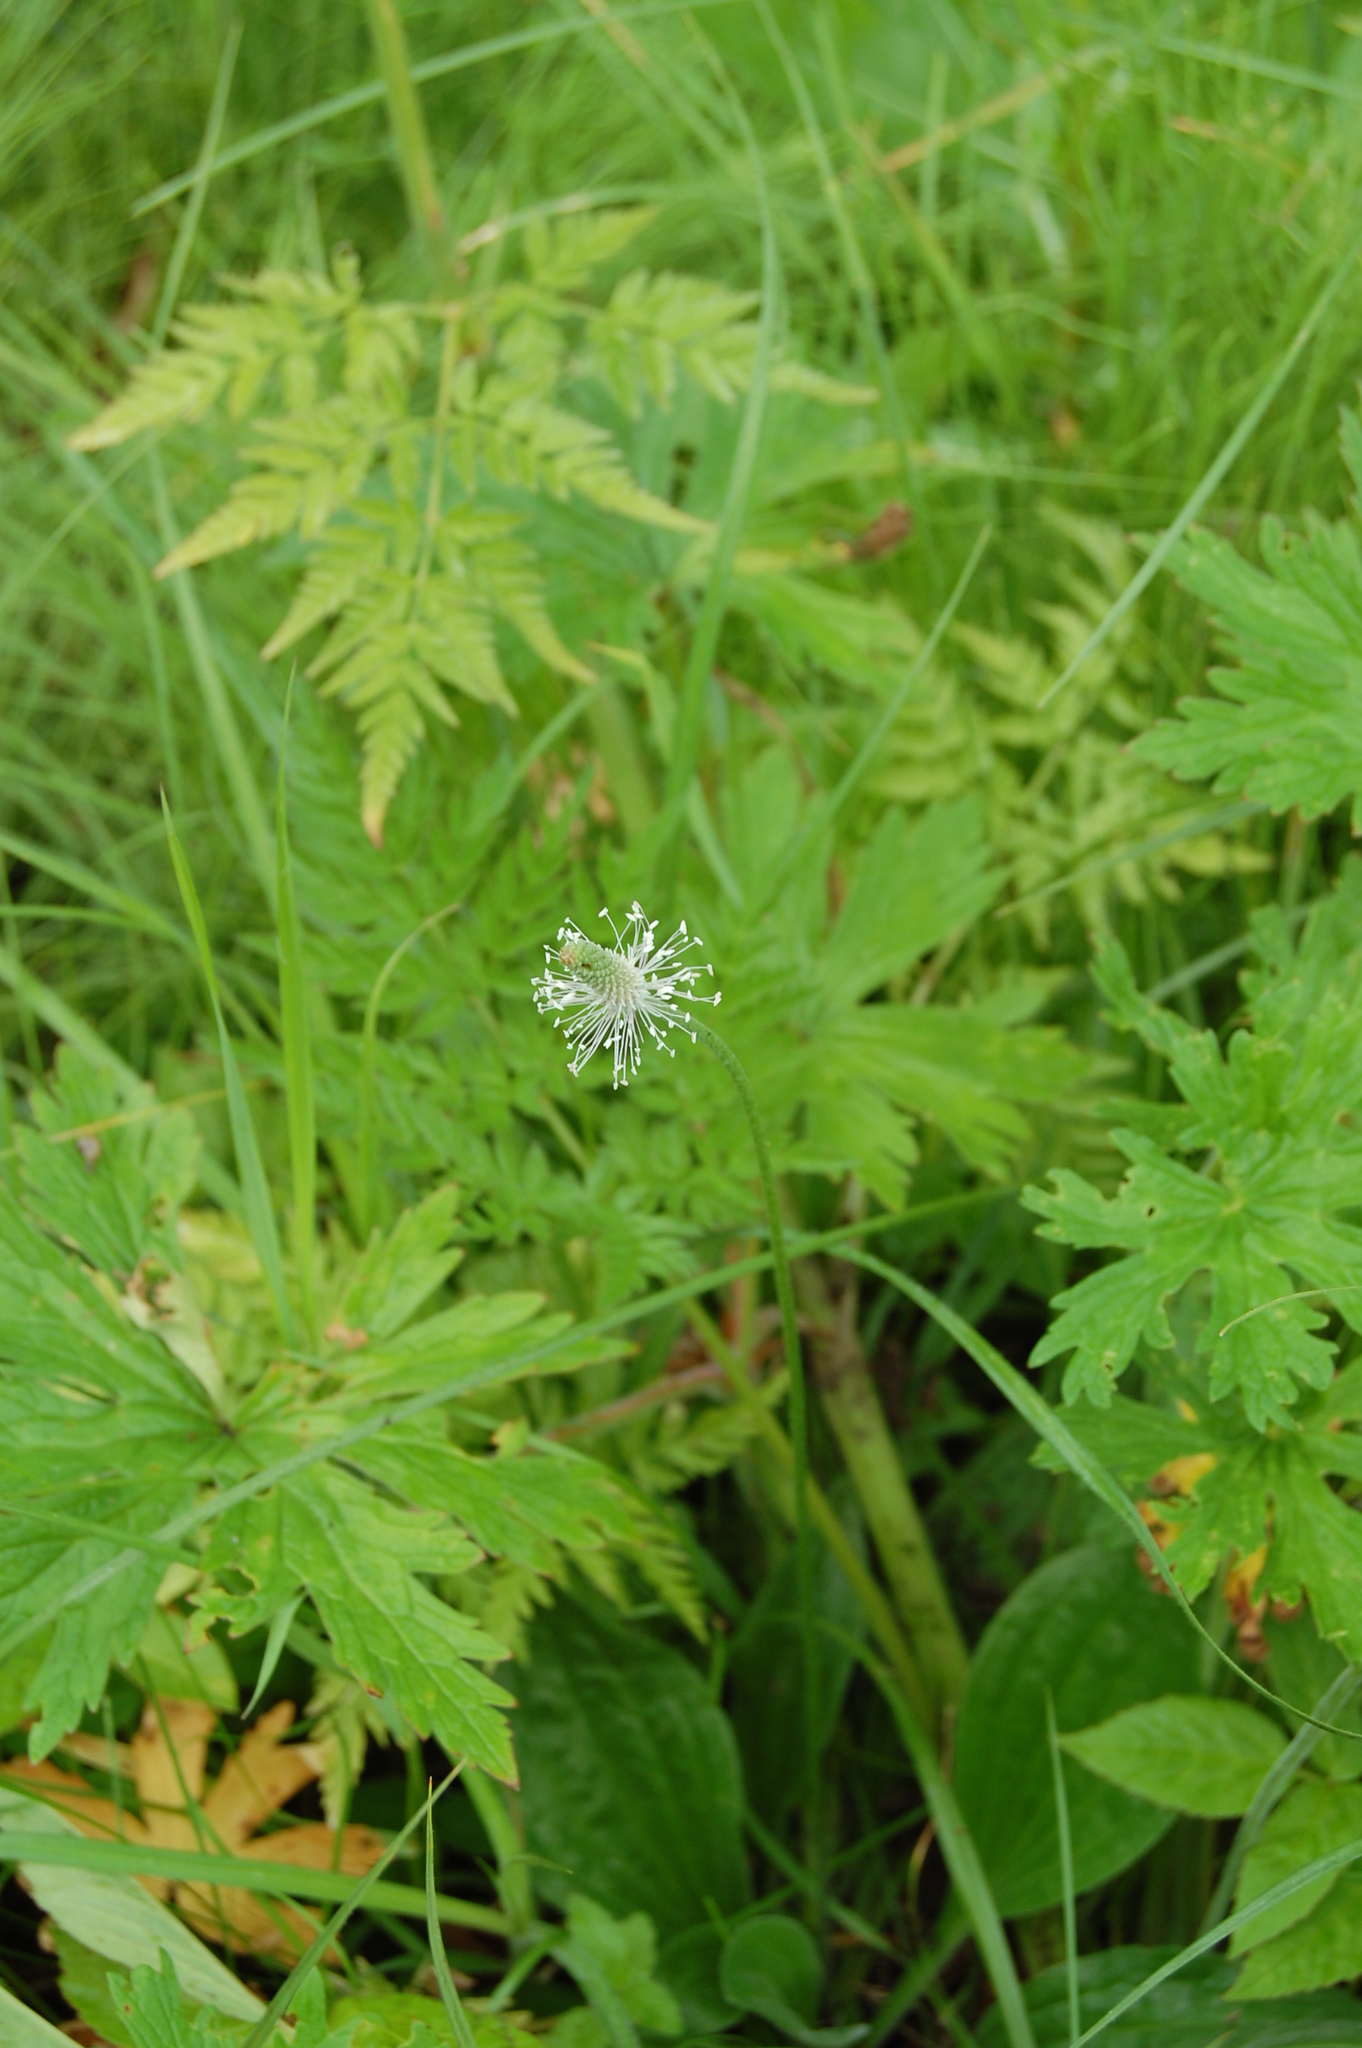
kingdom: Plantae
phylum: Tracheophyta
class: Magnoliopsida
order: Lamiales
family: Plantaginaceae
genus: Plantago
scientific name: Plantago media
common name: Hoary plantain
